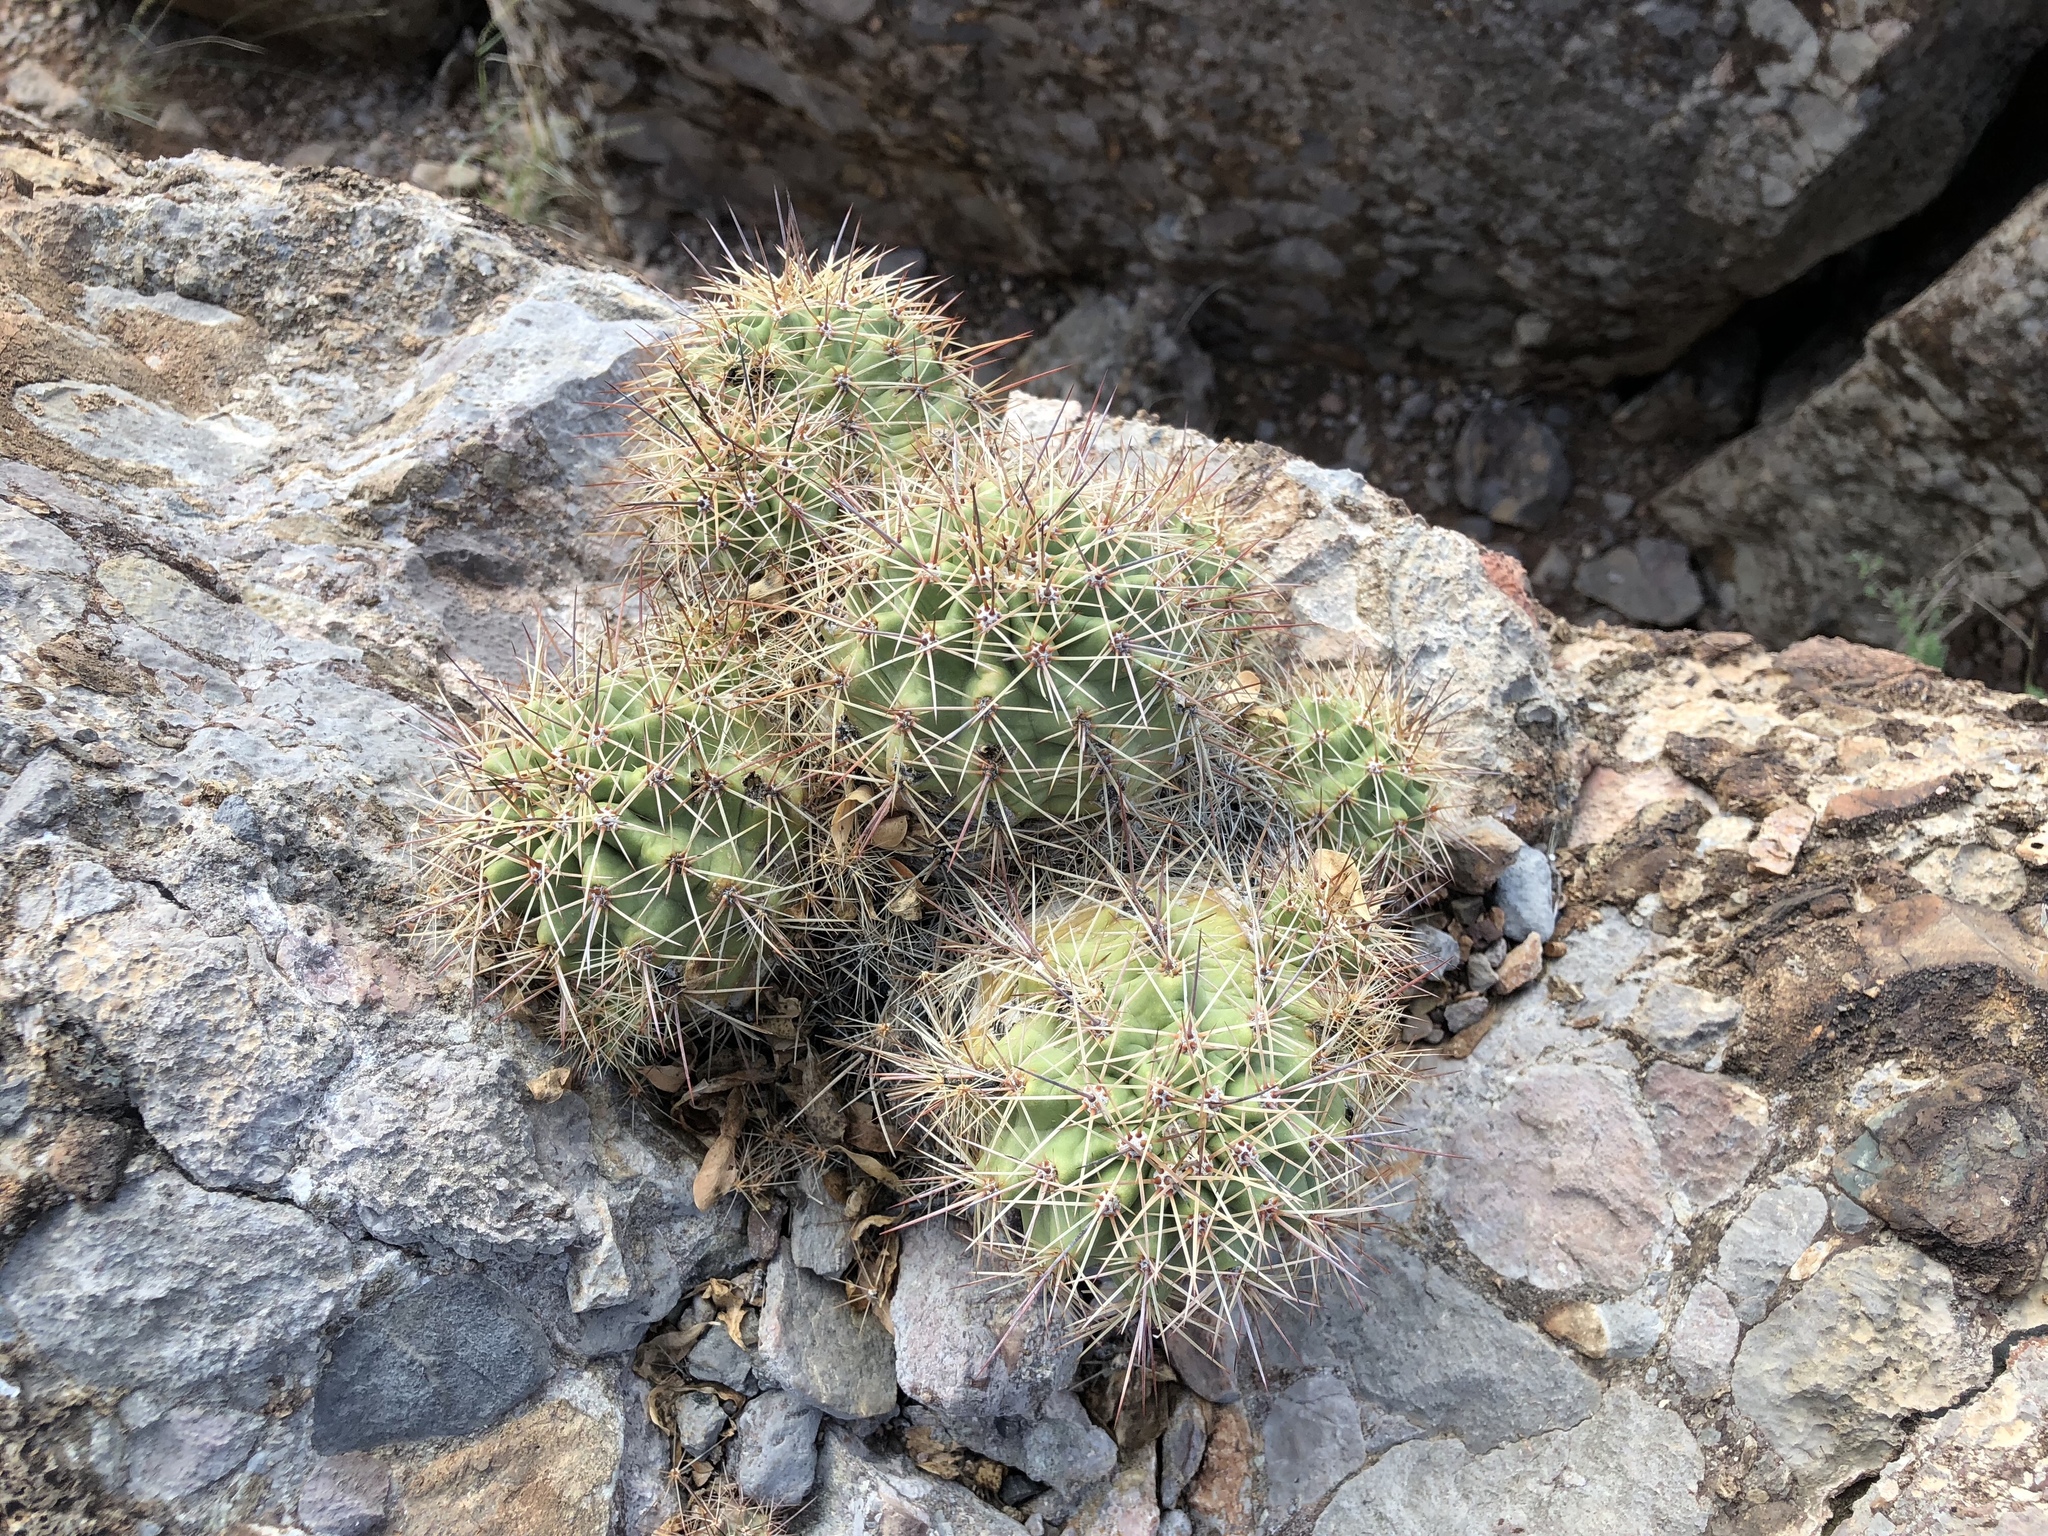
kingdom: Plantae
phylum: Tracheophyta
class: Magnoliopsida
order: Caryophyllales
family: Cactaceae
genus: Echinocereus
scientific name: Echinocereus coccineus
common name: Scarlet hedgehog cactus
